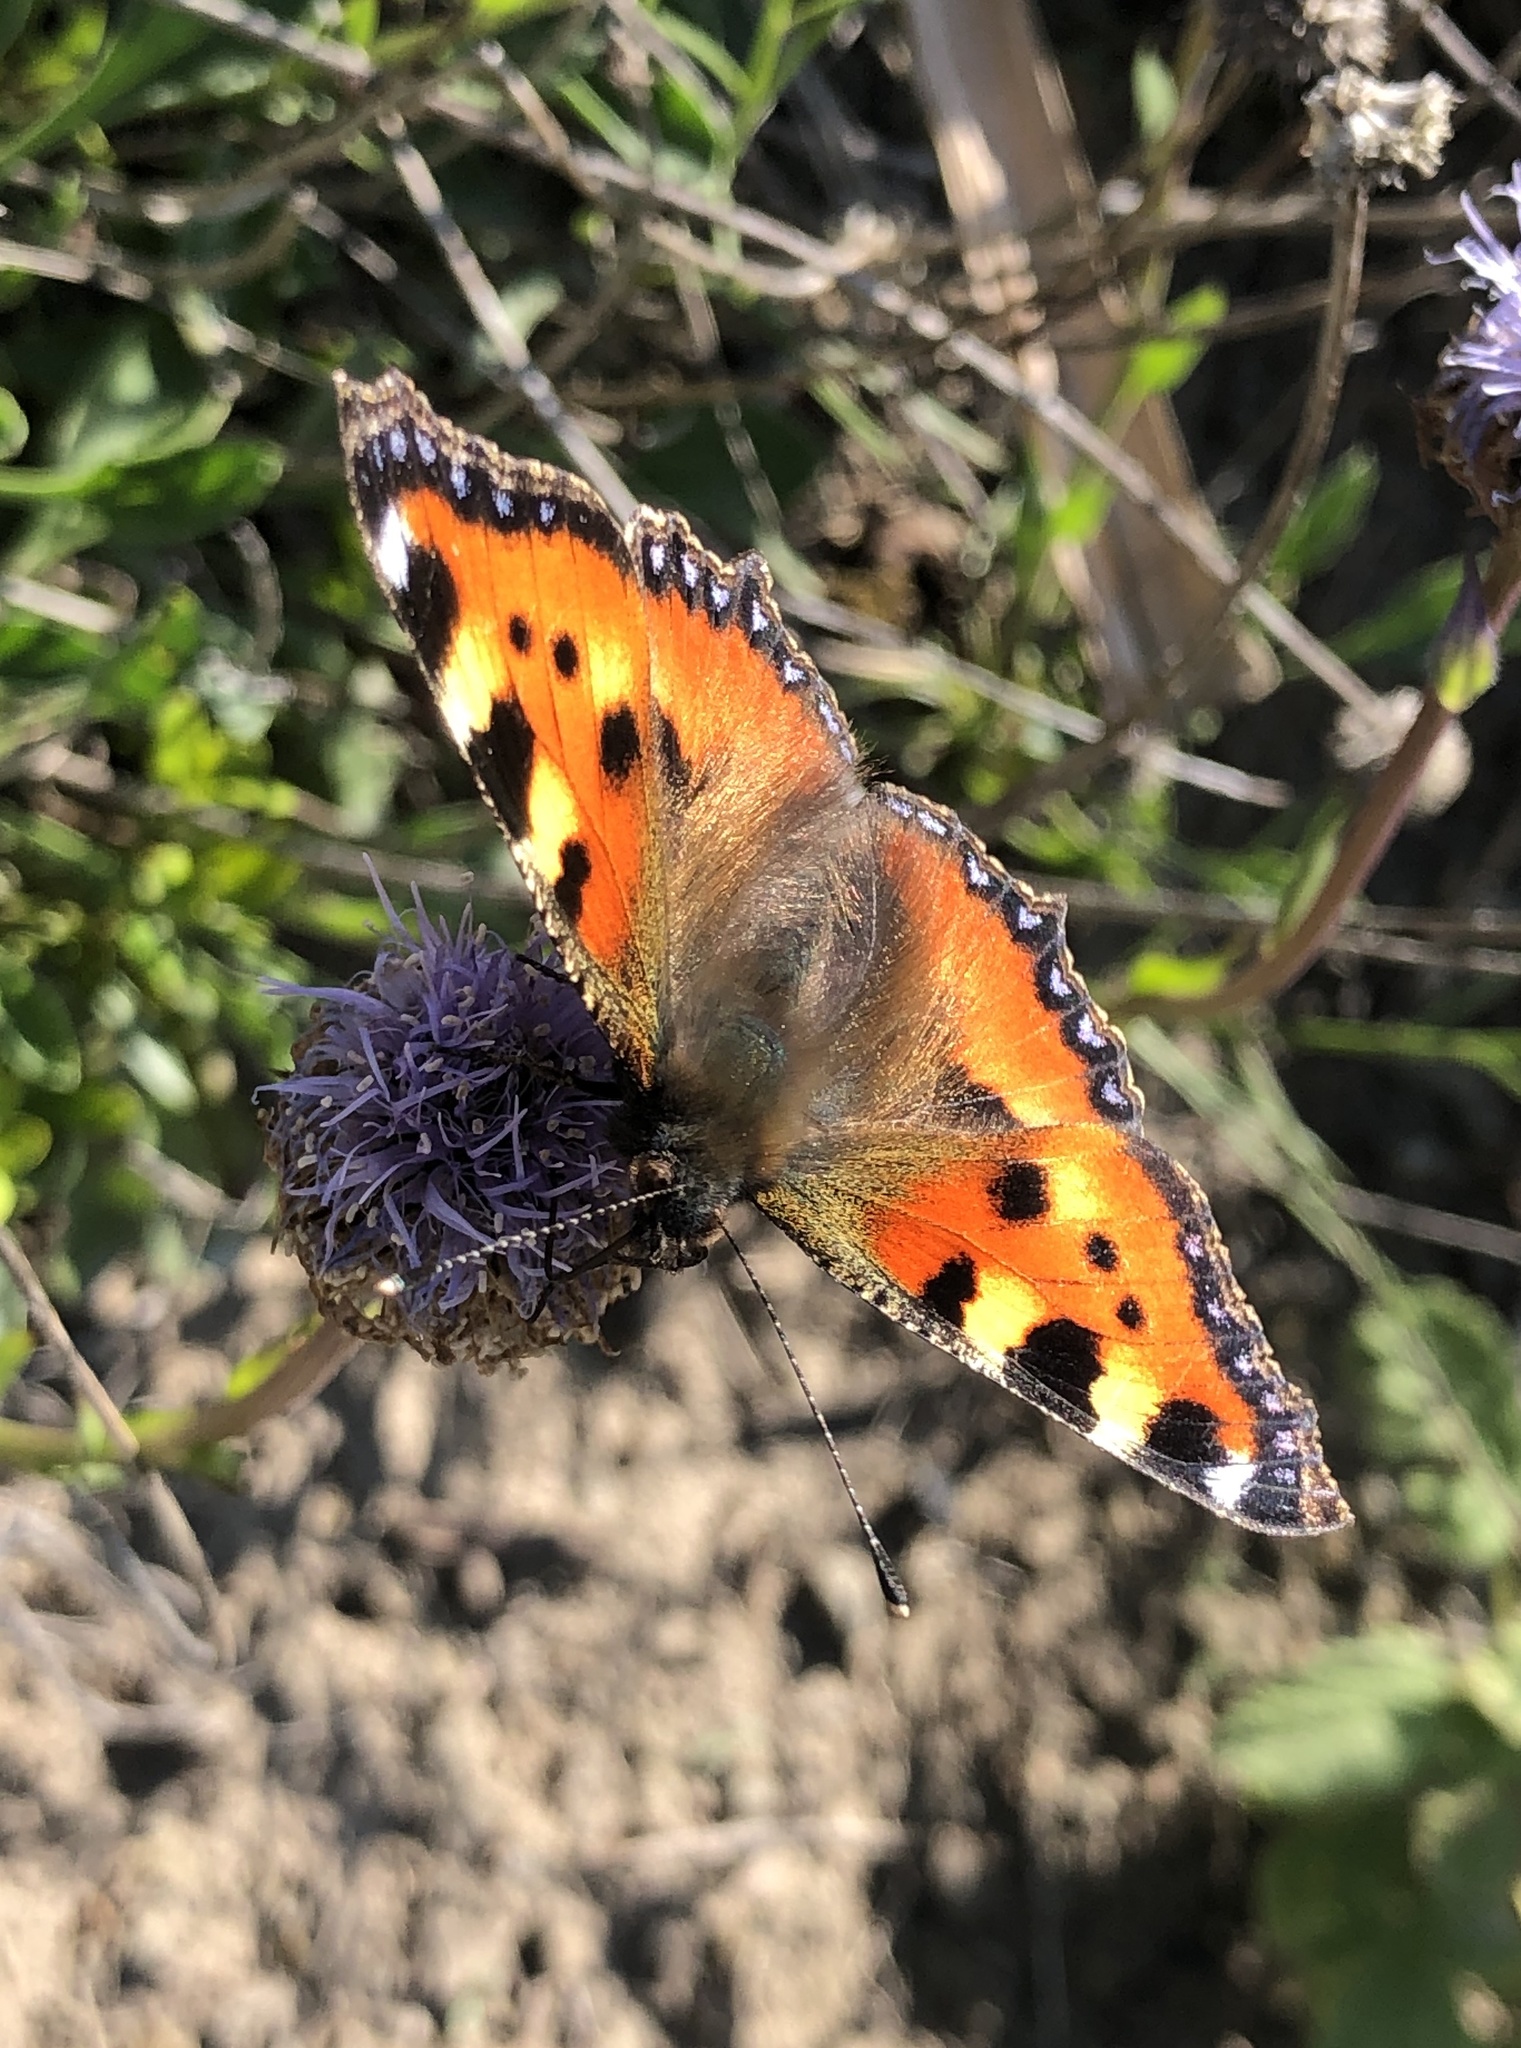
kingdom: Animalia
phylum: Arthropoda
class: Insecta
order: Lepidoptera
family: Nymphalidae
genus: Aglais
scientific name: Aglais urticae
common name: Small tortoiseshell
